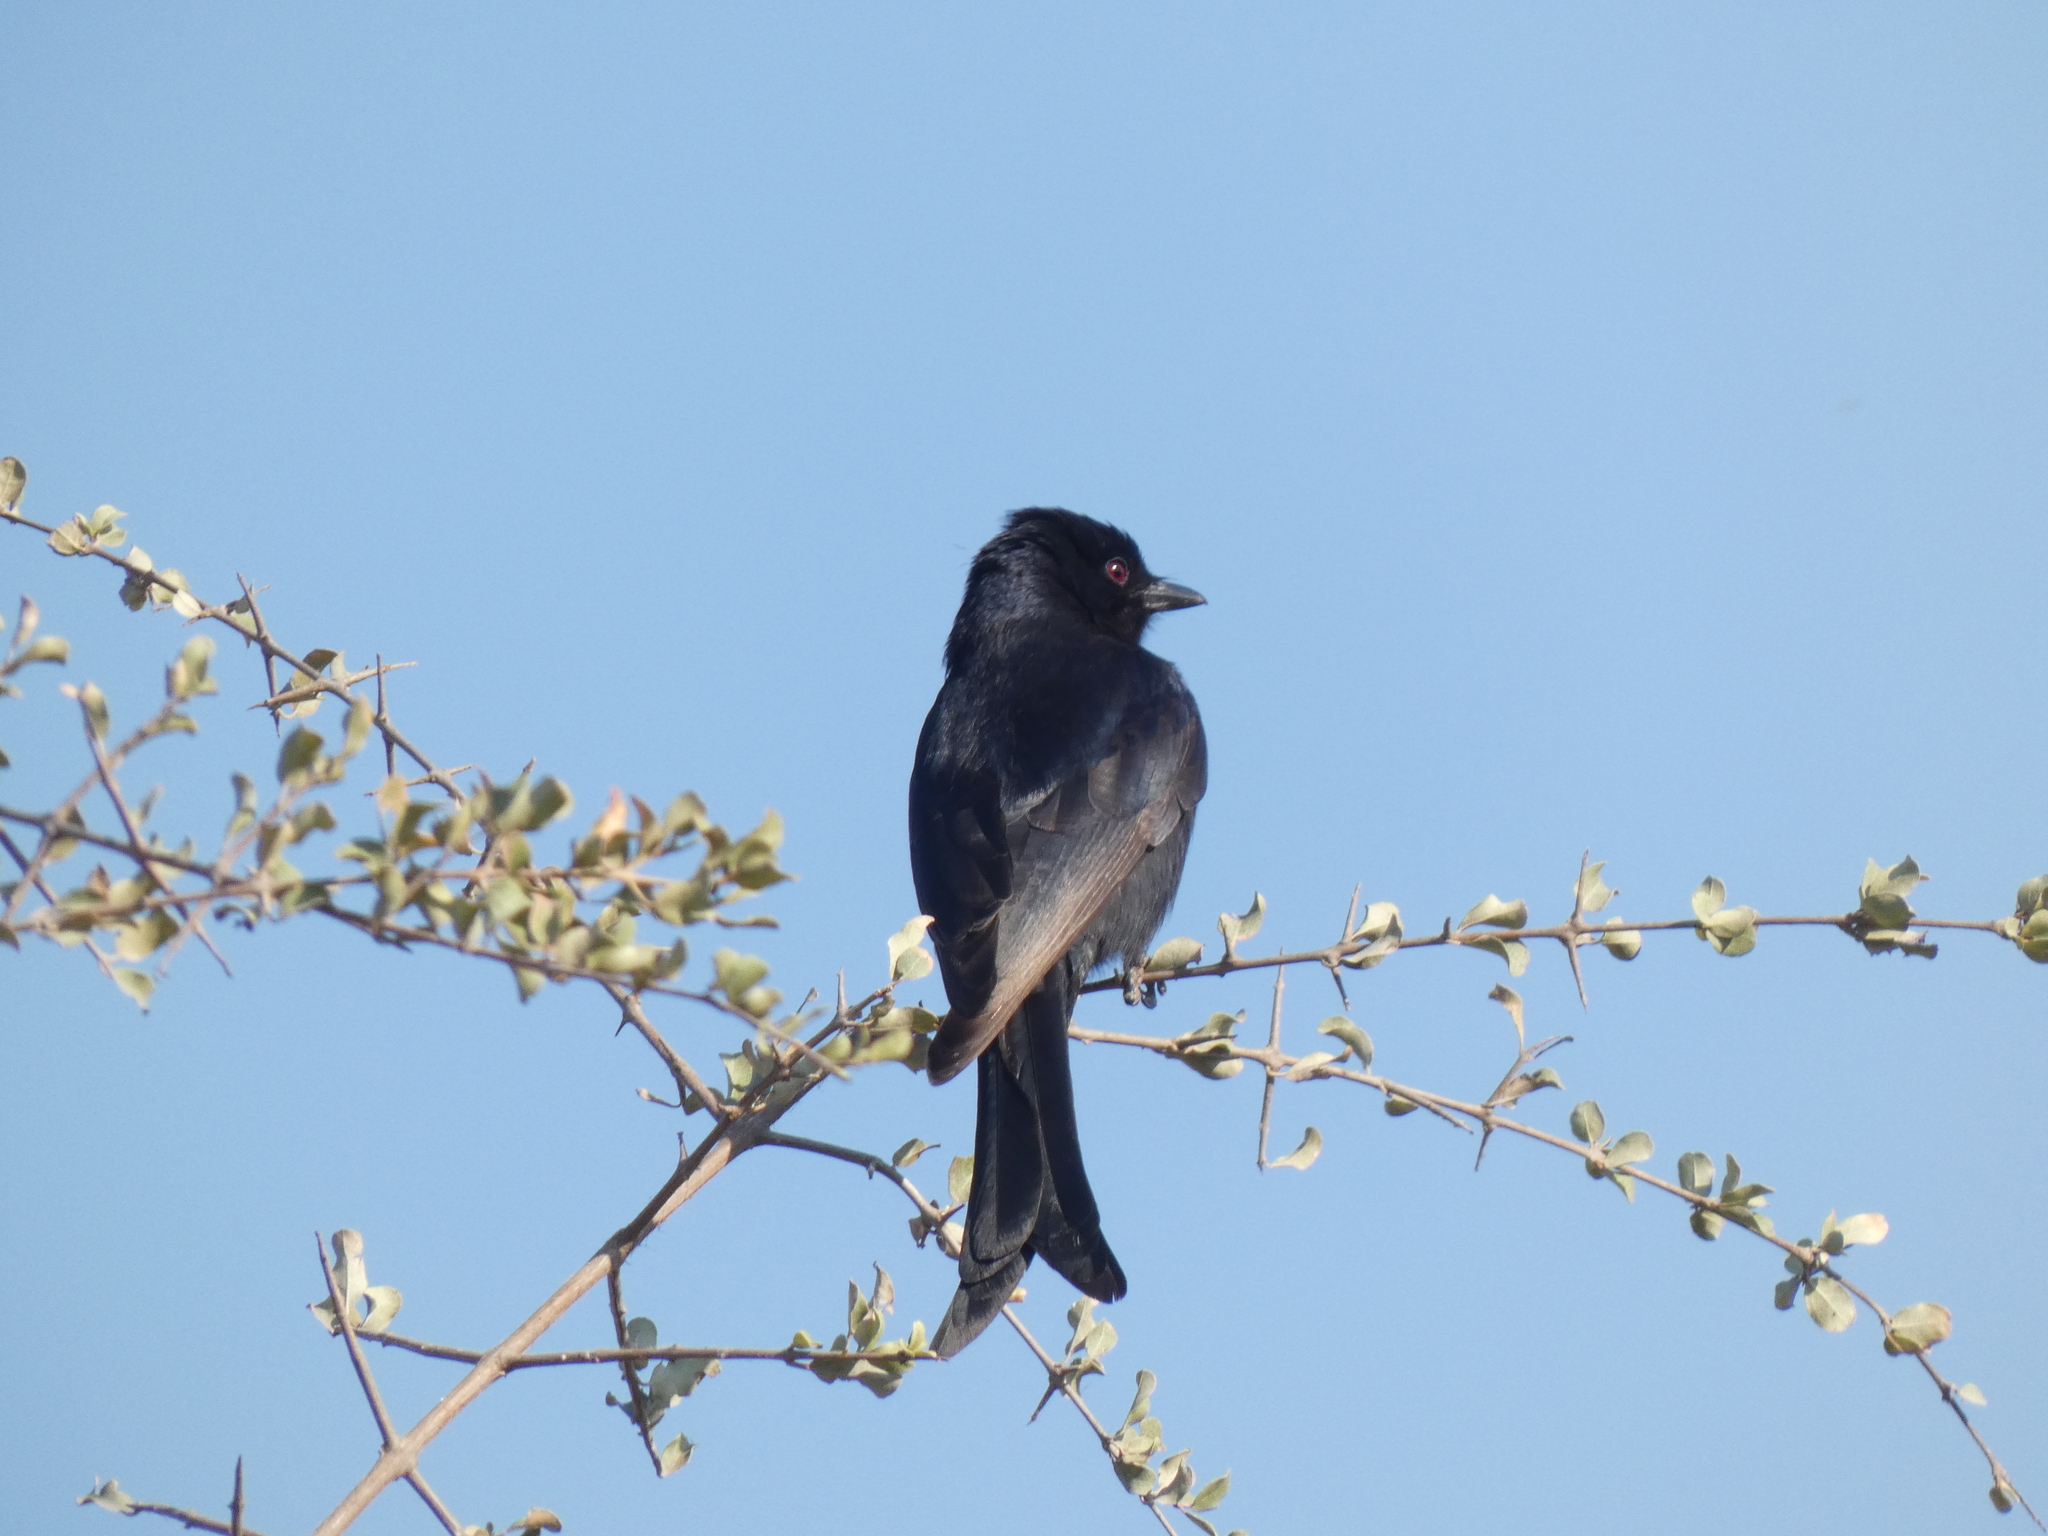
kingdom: Animalia
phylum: Chordata
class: Aves
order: Passeriformes
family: Dicruridae
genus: Dicrurus
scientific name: Dicrurus adsimilis
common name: Fork-tailed drongo
